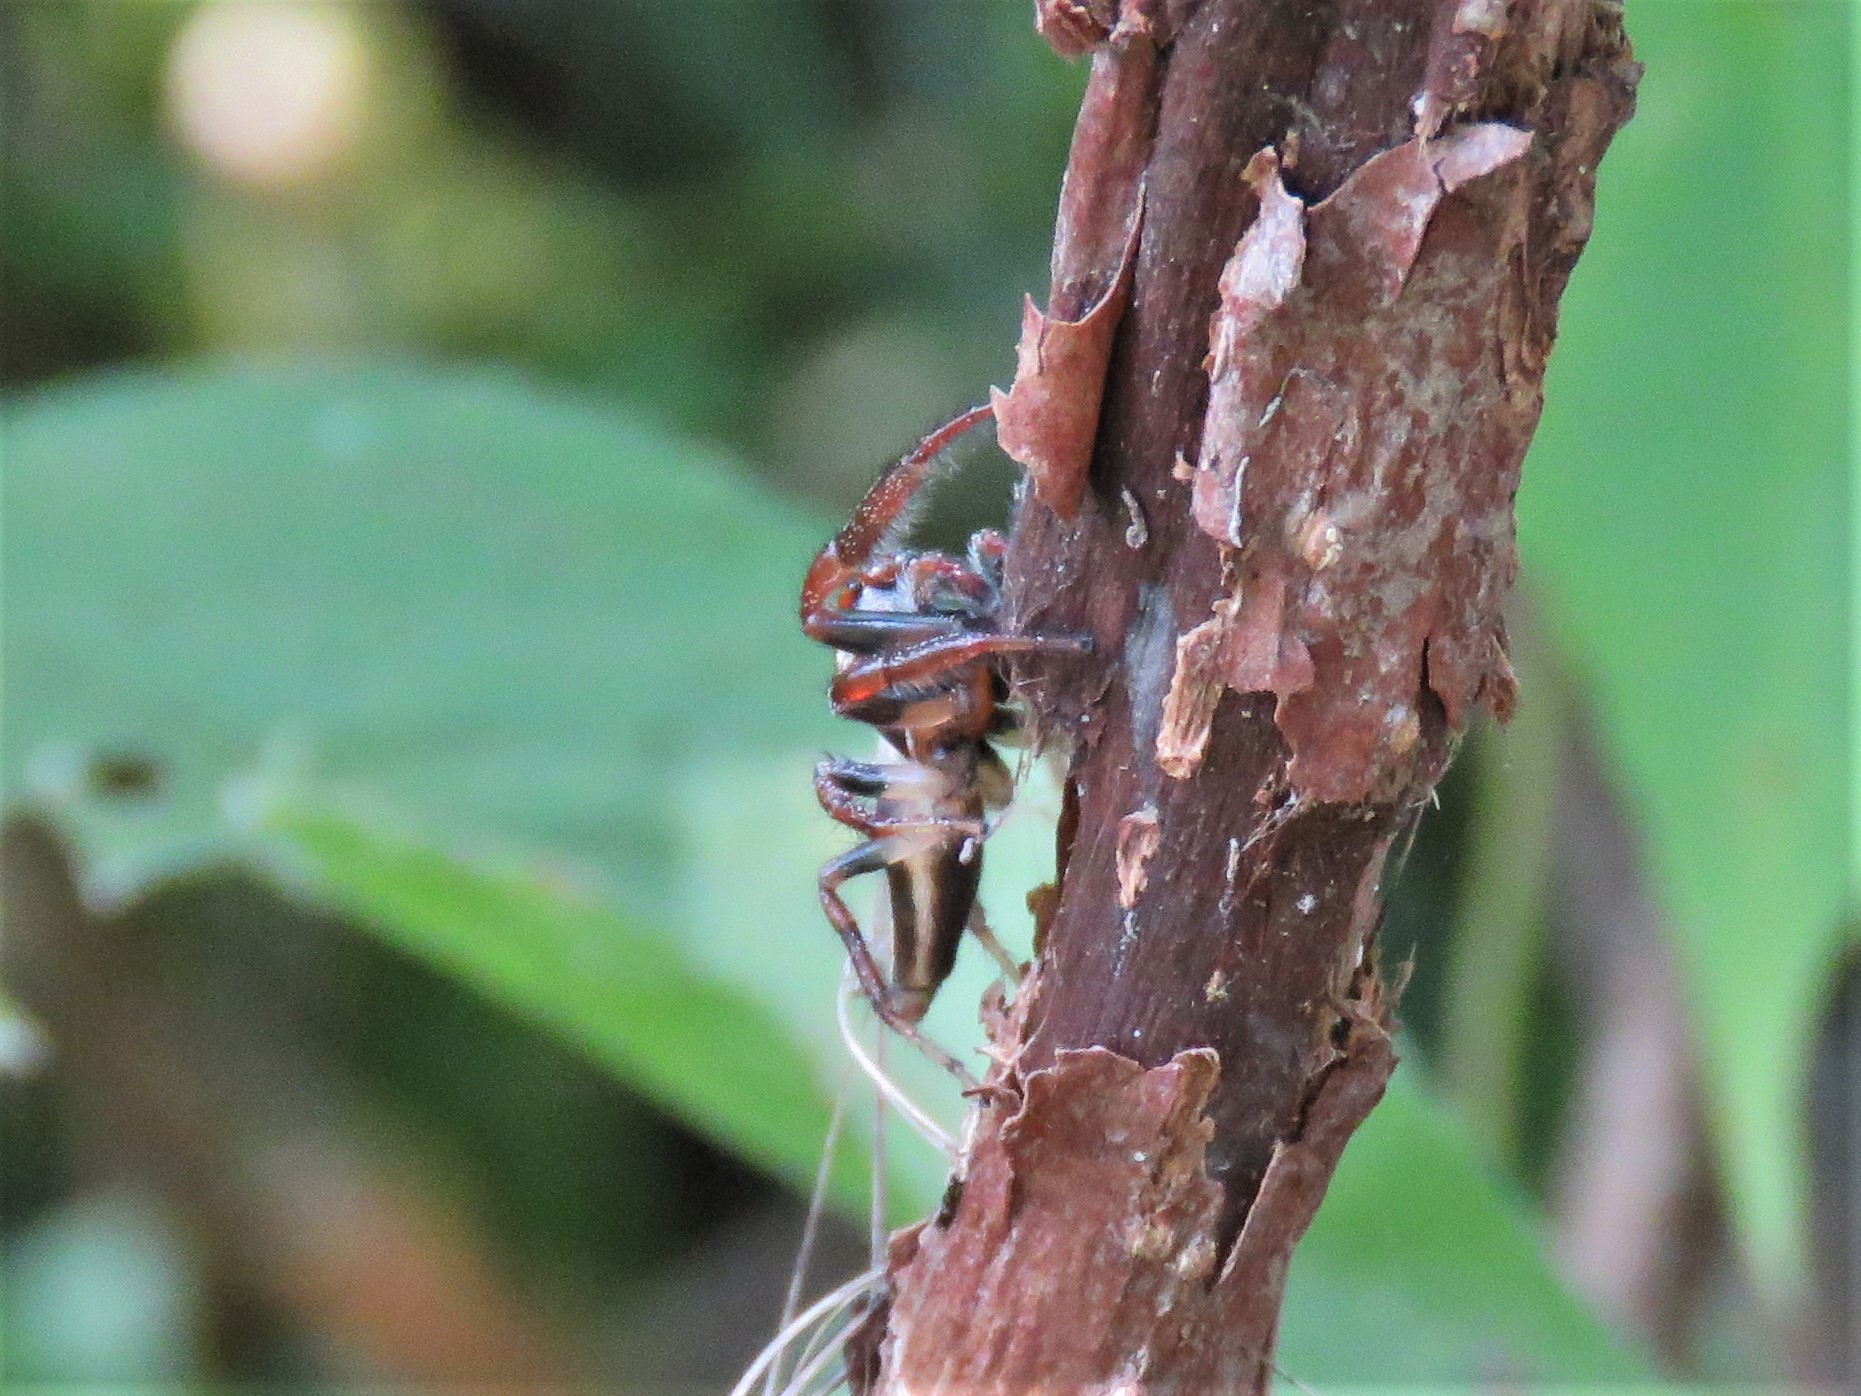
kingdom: Animalia
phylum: Arthropoda
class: Arachnida
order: Araneae
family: Salticidae
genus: Colonus
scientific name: Colonus sylvanus
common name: Jumping spiders
